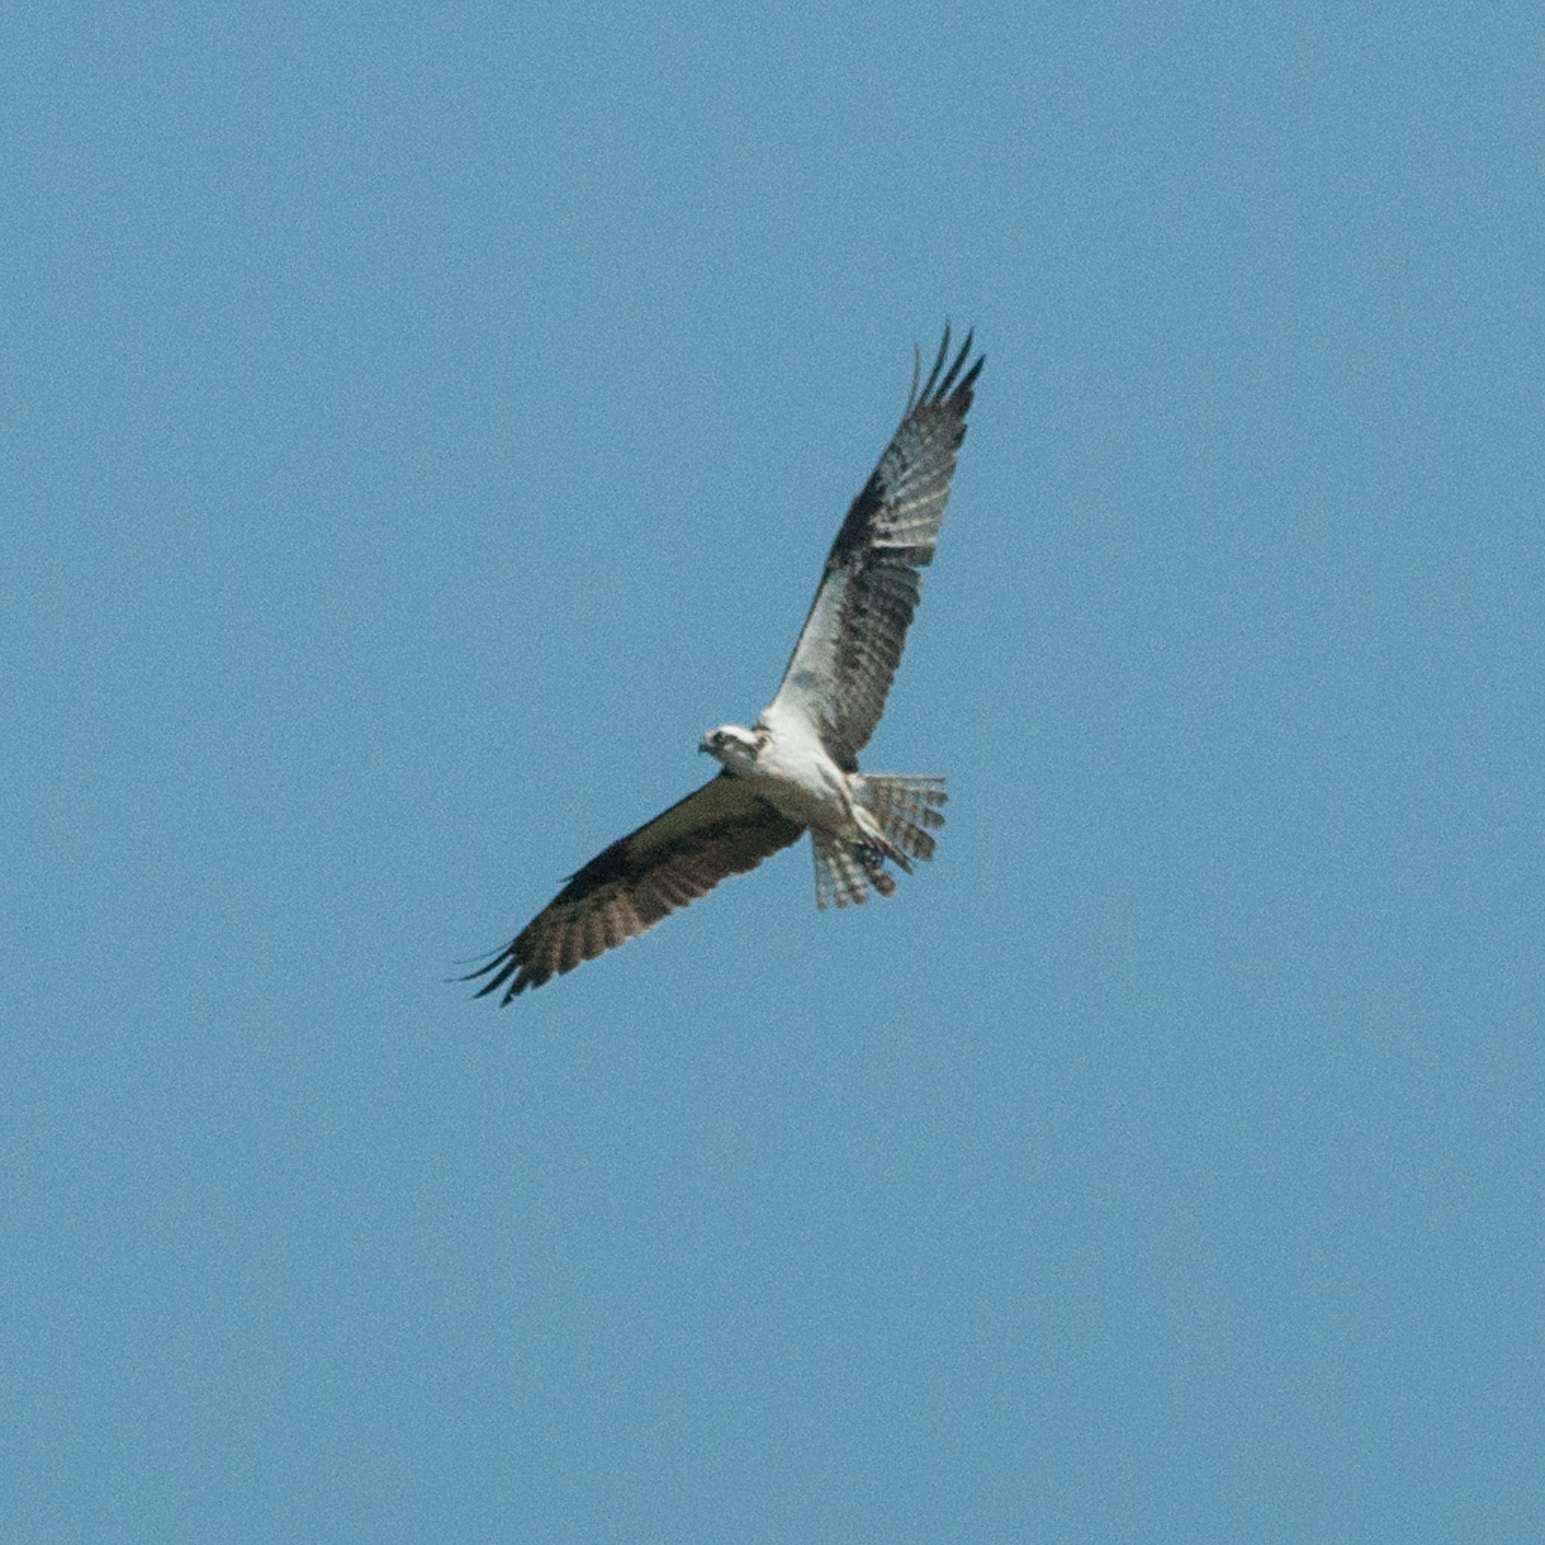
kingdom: Animalia
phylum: Chordata
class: Aves
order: Accipitriformes
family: Pandionidae
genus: Pandion
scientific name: Pandion haliaetus
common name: Osprey
